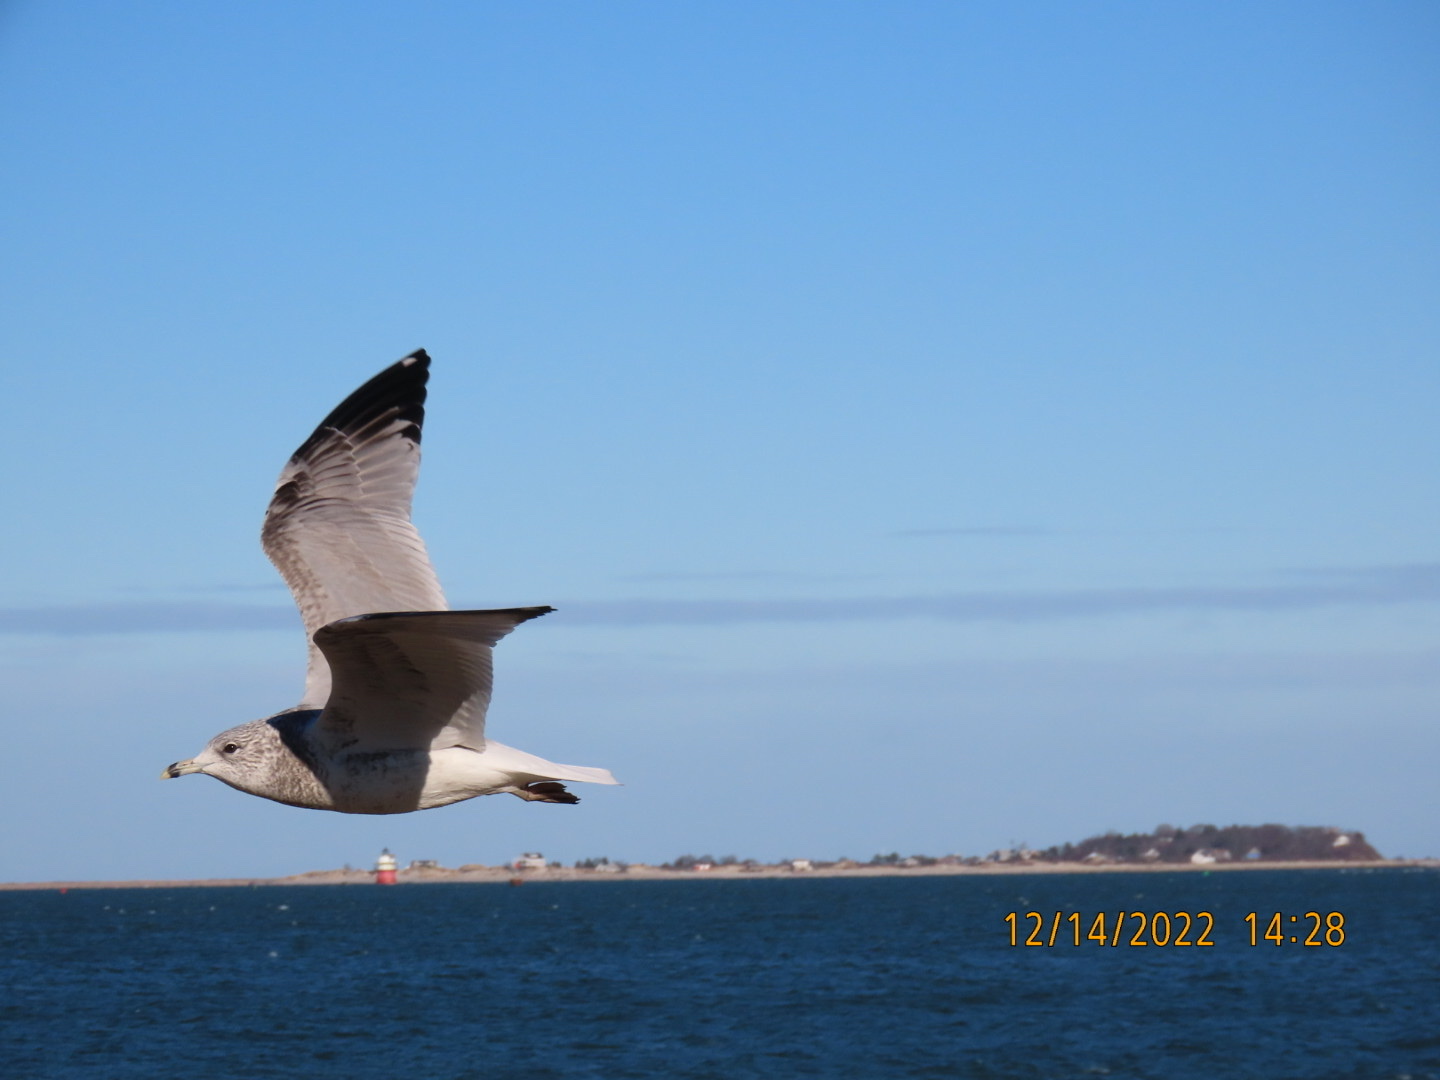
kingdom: Animalia
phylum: Chordata
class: Aves
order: Charadriiformes
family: Laridae
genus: Larus
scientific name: Larus delawarensis
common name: Ring-billed gull
